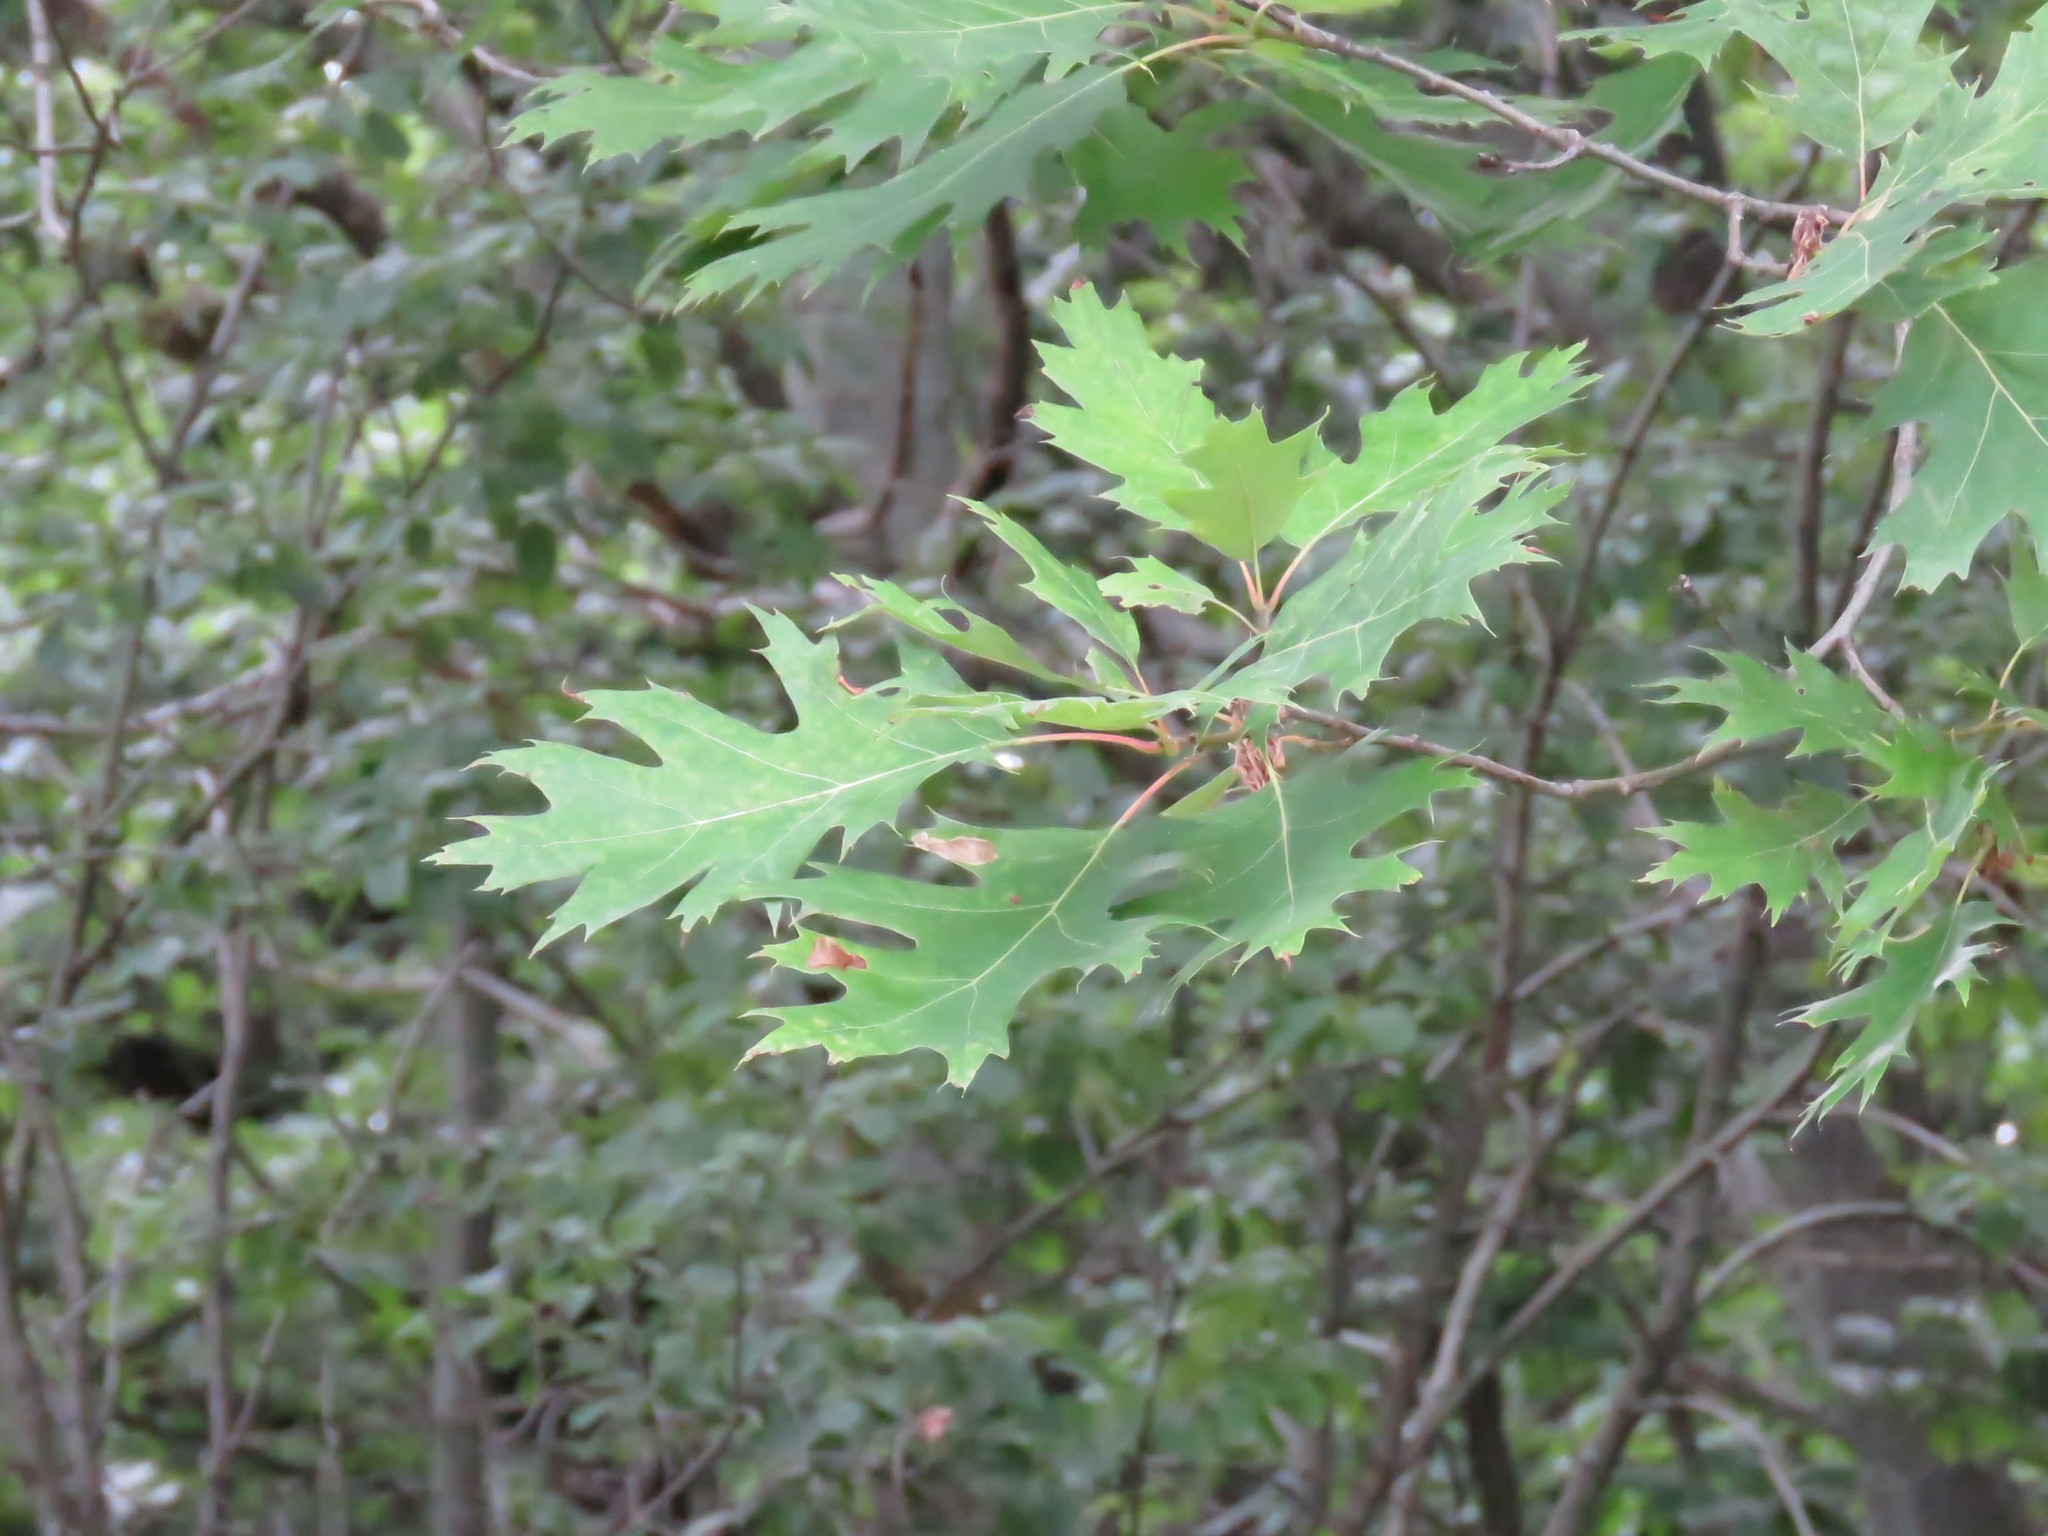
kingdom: Plantae
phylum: Tracheophyta
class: Magnoliopsida
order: Fagales
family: Fagaceae
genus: Quercus
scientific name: Quercus rubra
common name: Red oak
